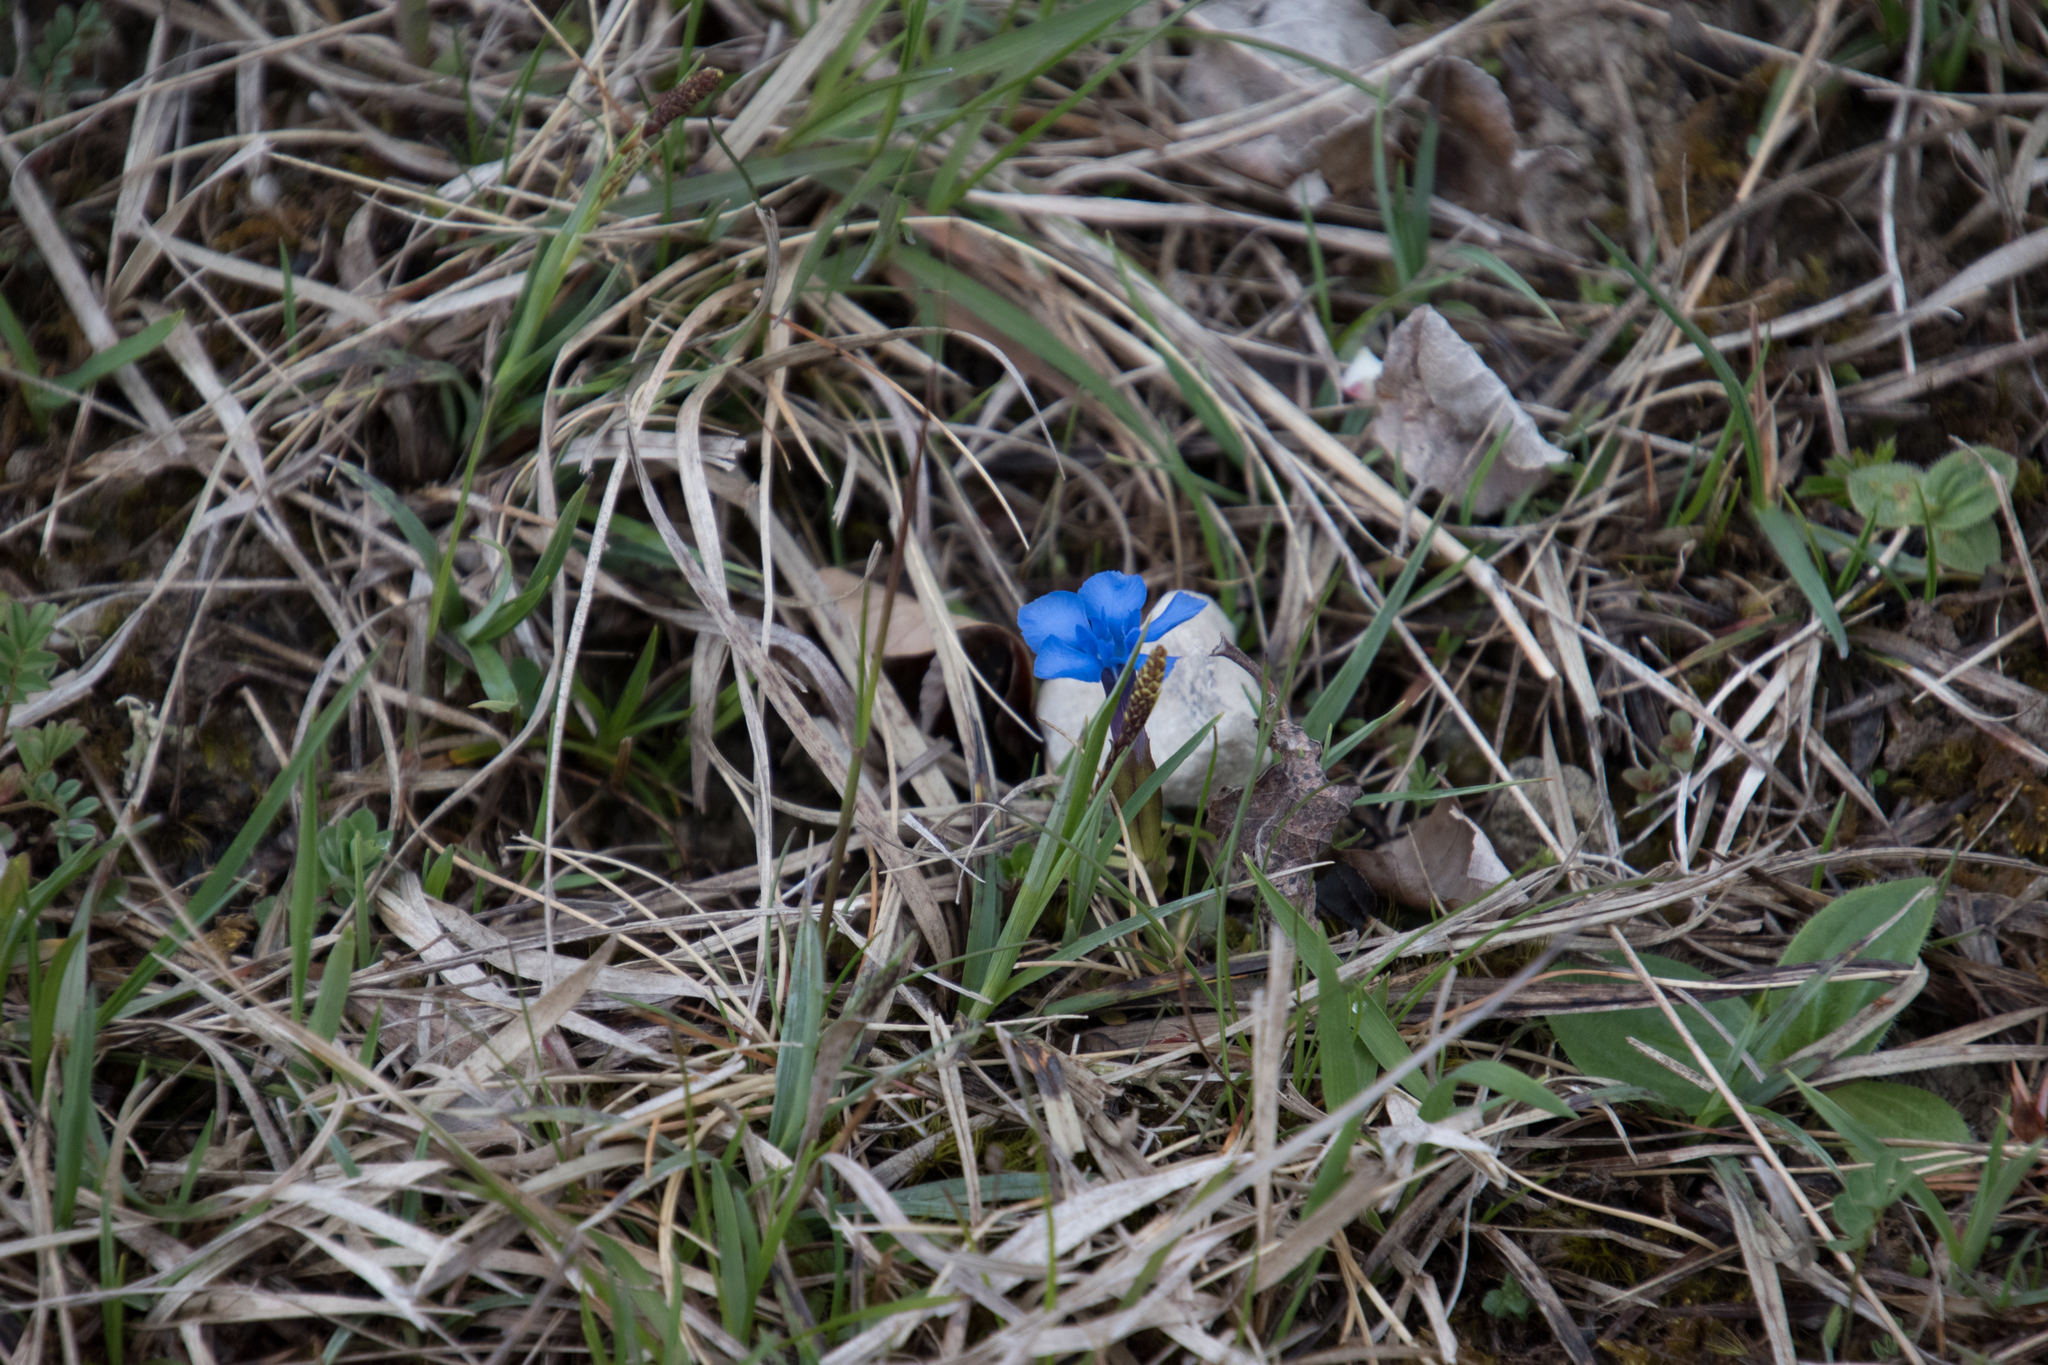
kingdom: Plantae
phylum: Tracheophyta
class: Magnoliopsida
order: Gentianales
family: Gentianaceae
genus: Gentiana
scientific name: Gentiana verna
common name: Spring gentian
